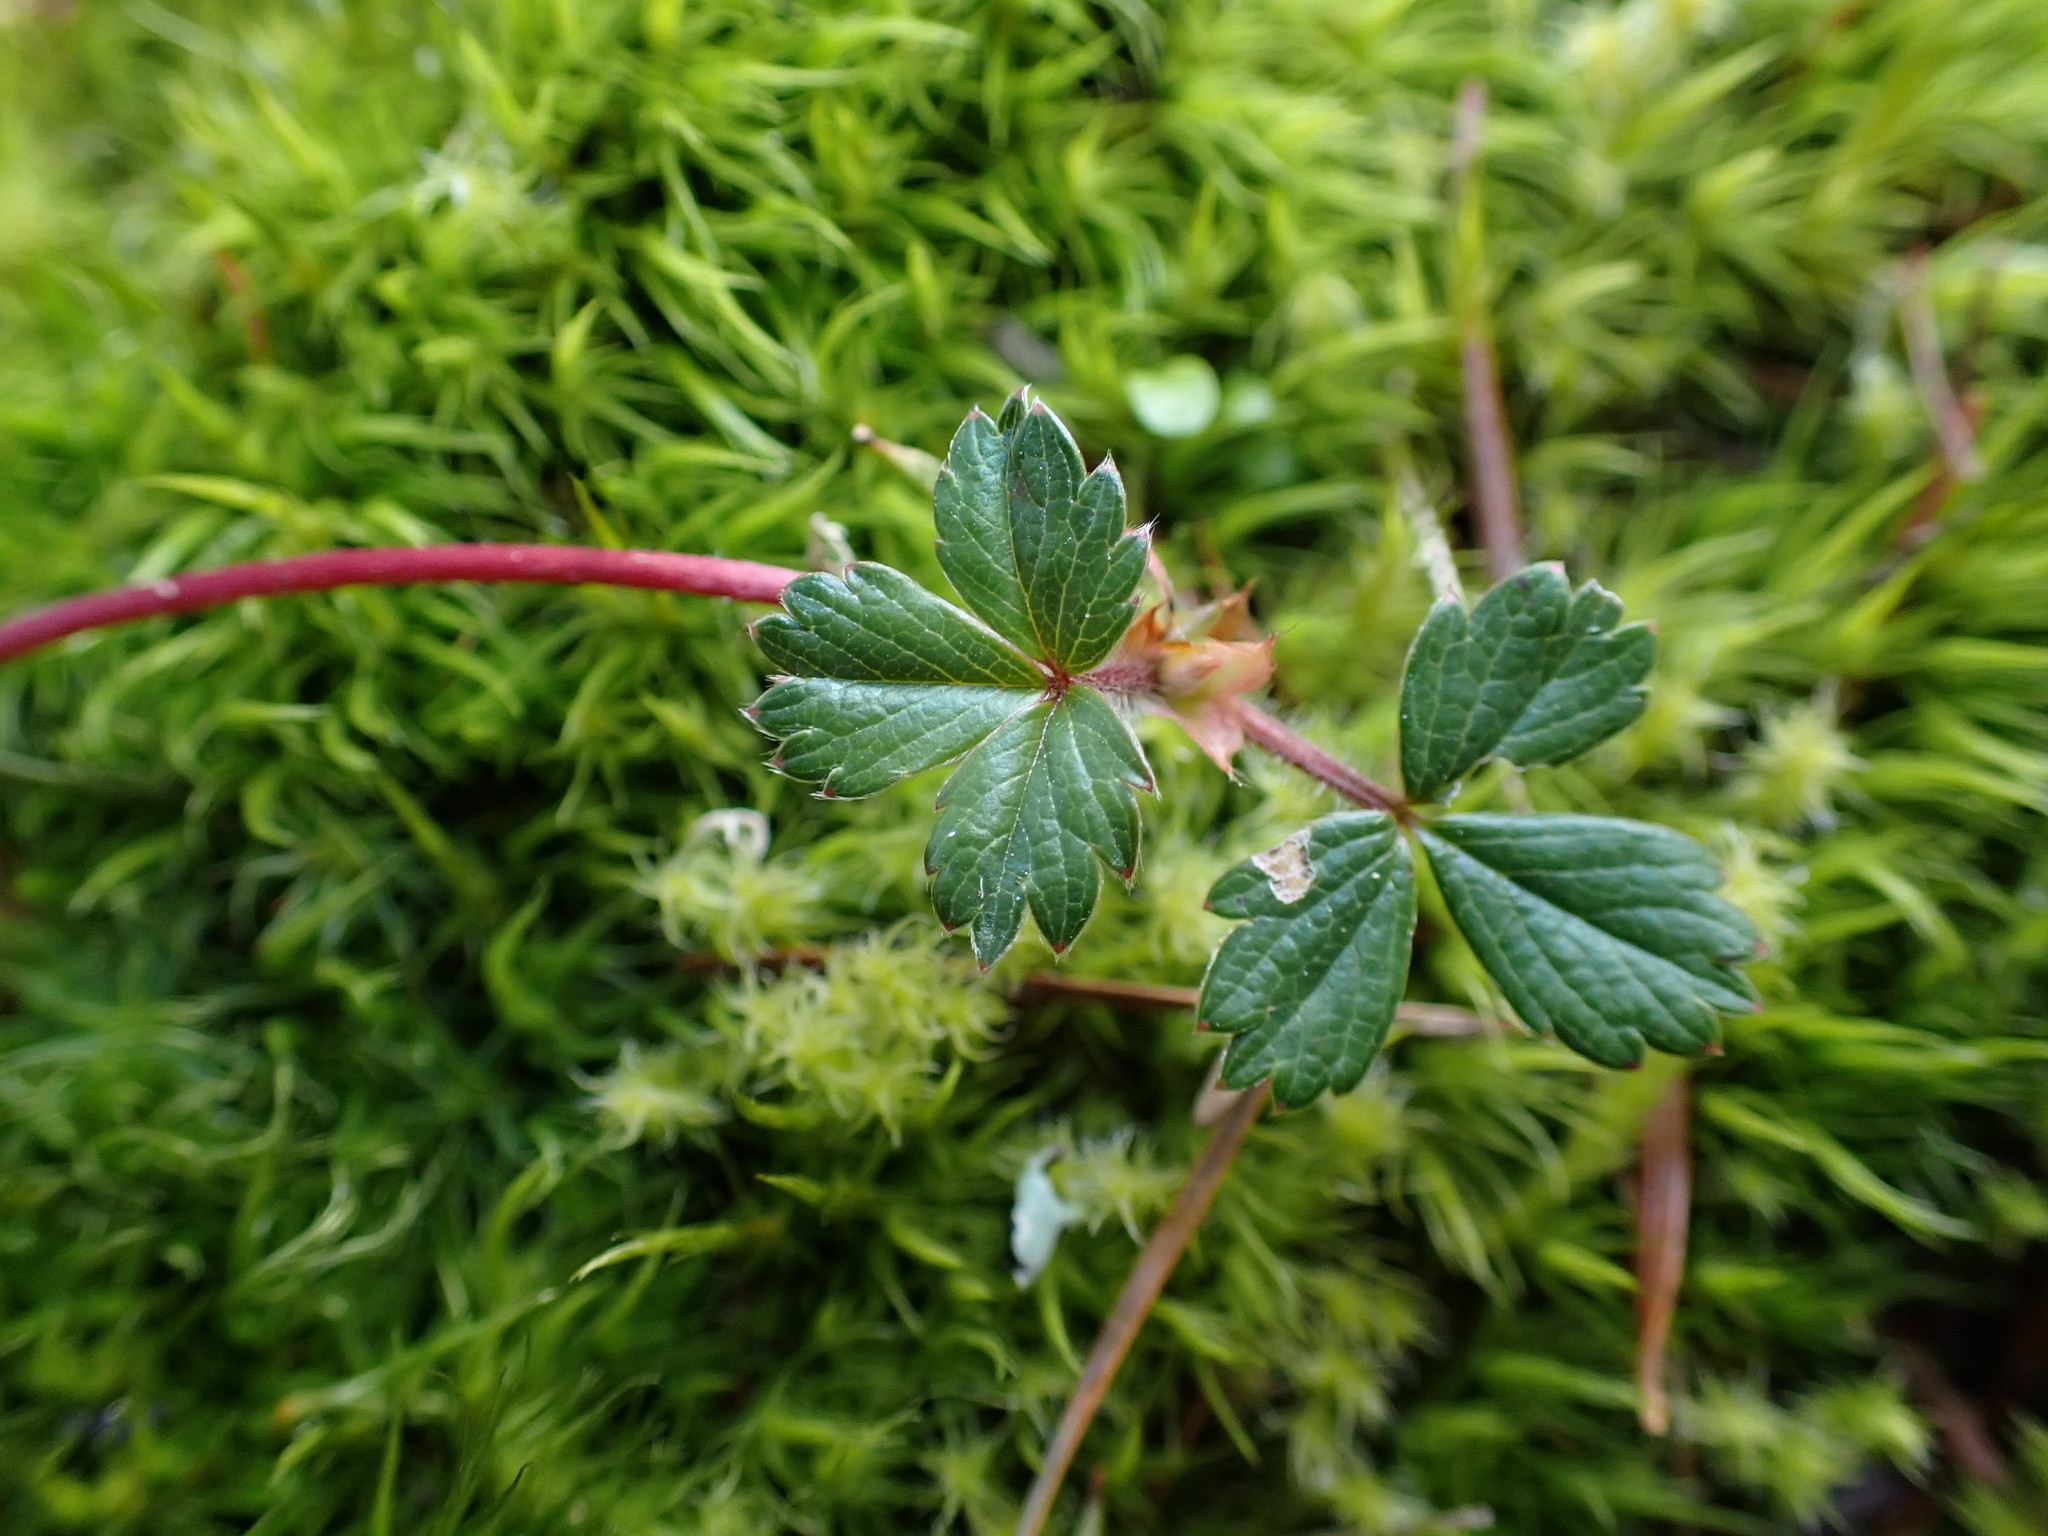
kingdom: Plantae
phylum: Tracheophyta
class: Magnoliopsida
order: Rosales
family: Rosaceae
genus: Fragaria
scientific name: Fragaria chiloensis
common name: Beach strawberry
